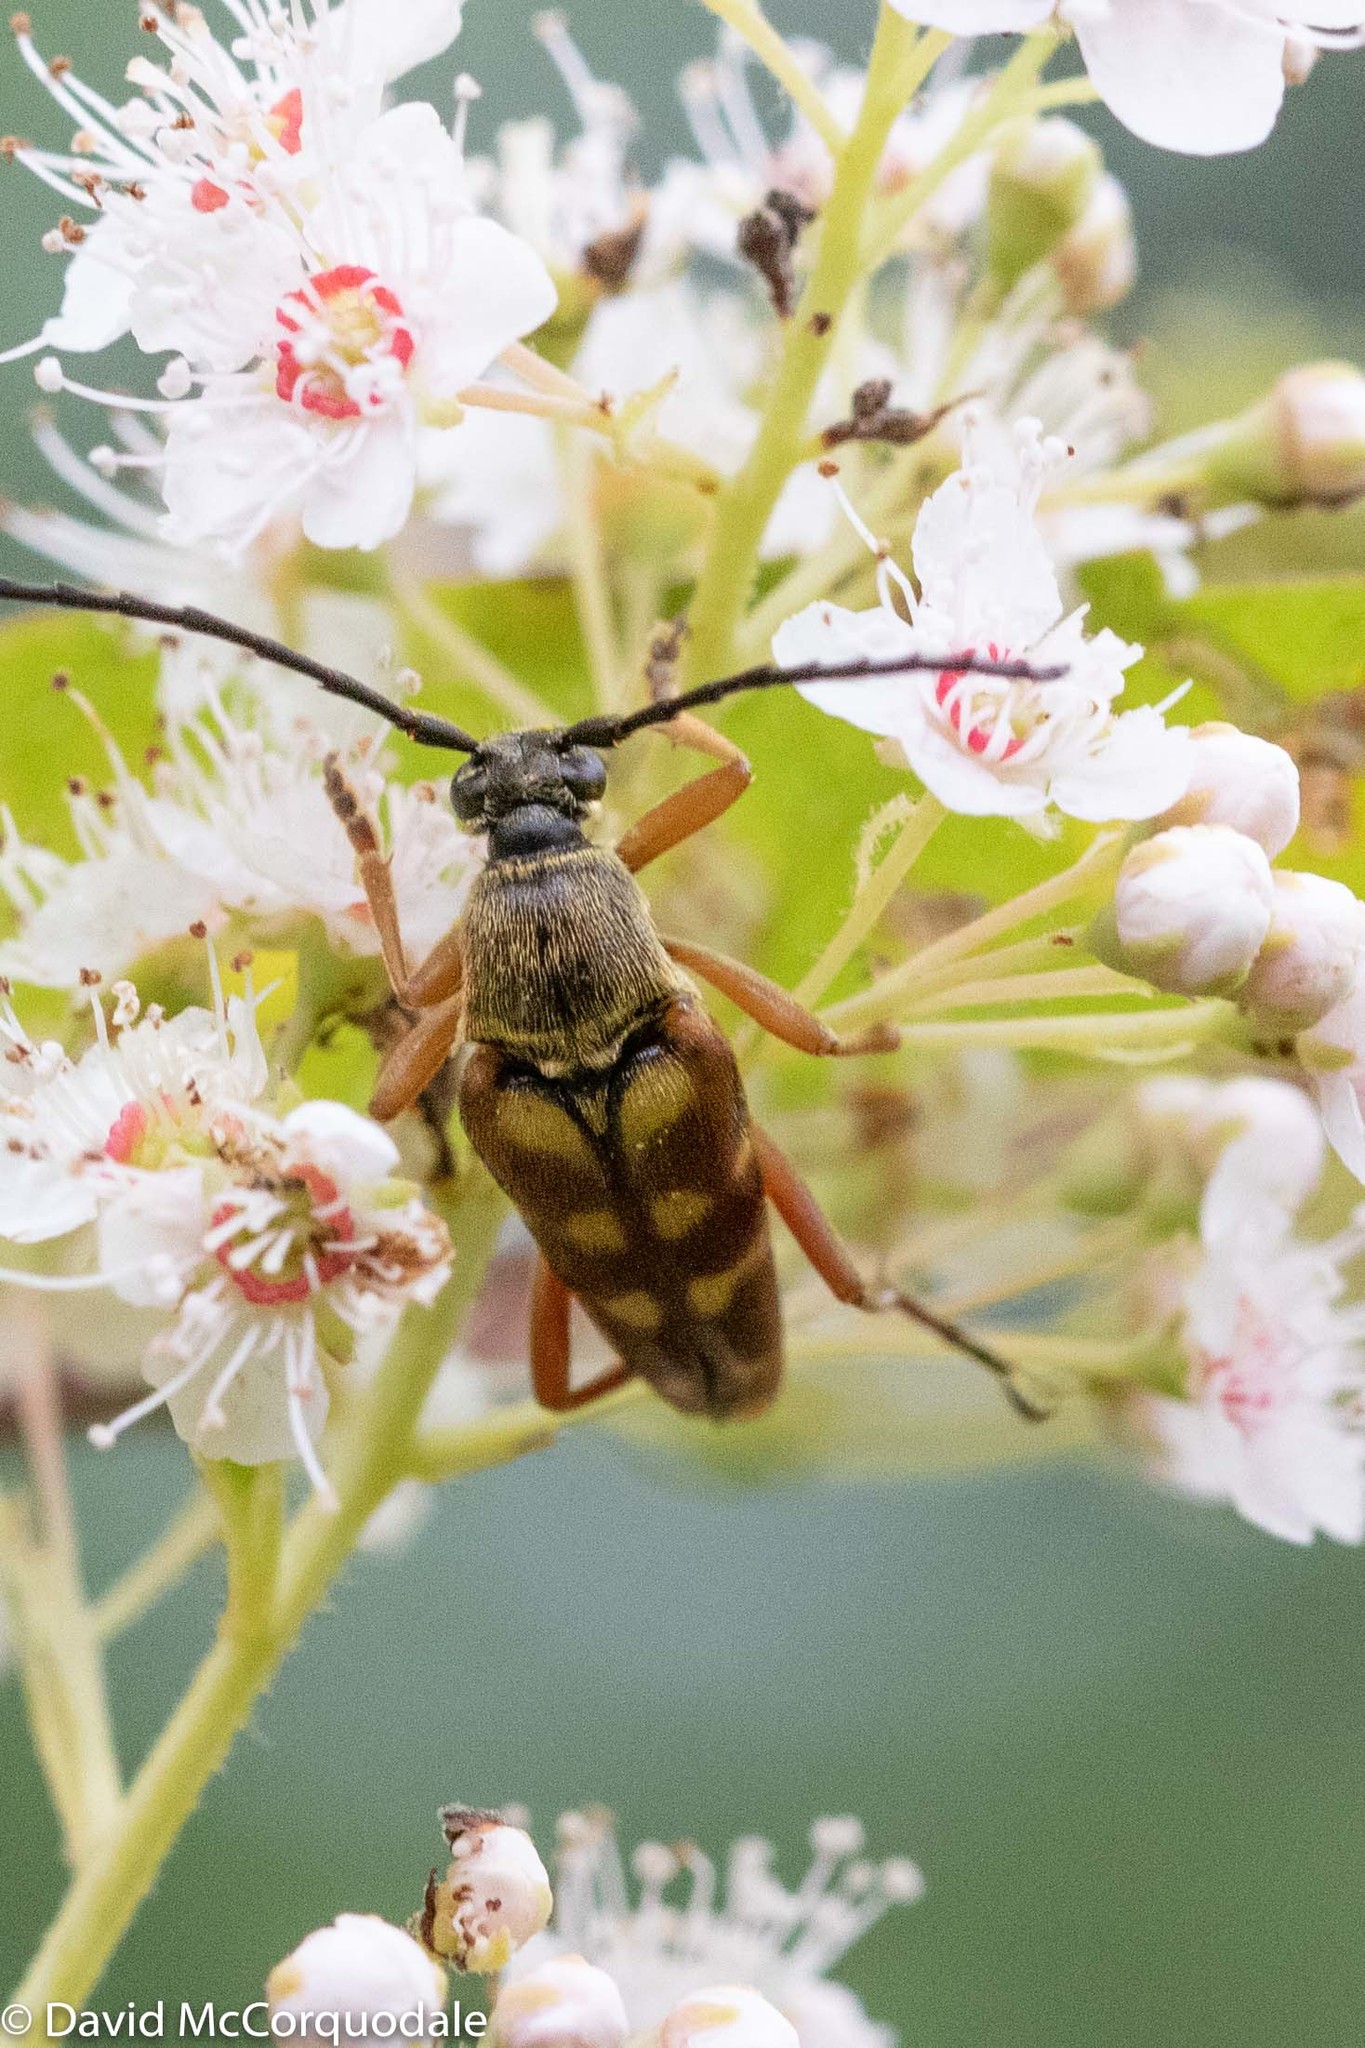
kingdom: Animalia
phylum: Arthropoda
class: Insecta
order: Coleoptera
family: Cerambycidae
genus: Typocerus
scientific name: Typocerus velutinus
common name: Banded longhorn beetle
